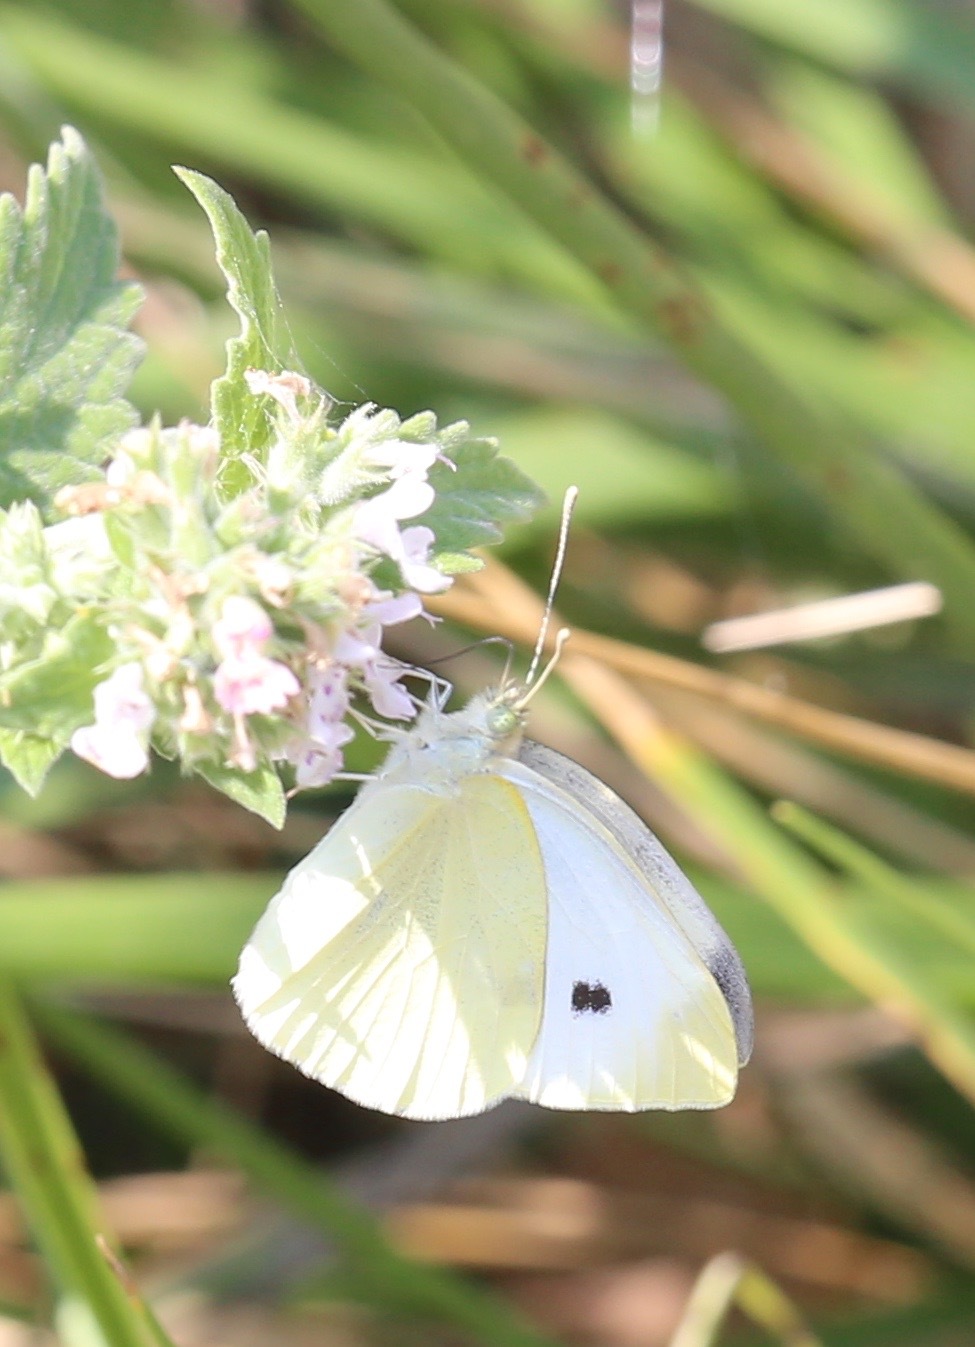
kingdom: Animalia
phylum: Arthropoda
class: Insecta
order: Lepidoptera
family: Pieridae
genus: Pieris
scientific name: Pieris rapae
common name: Small white
